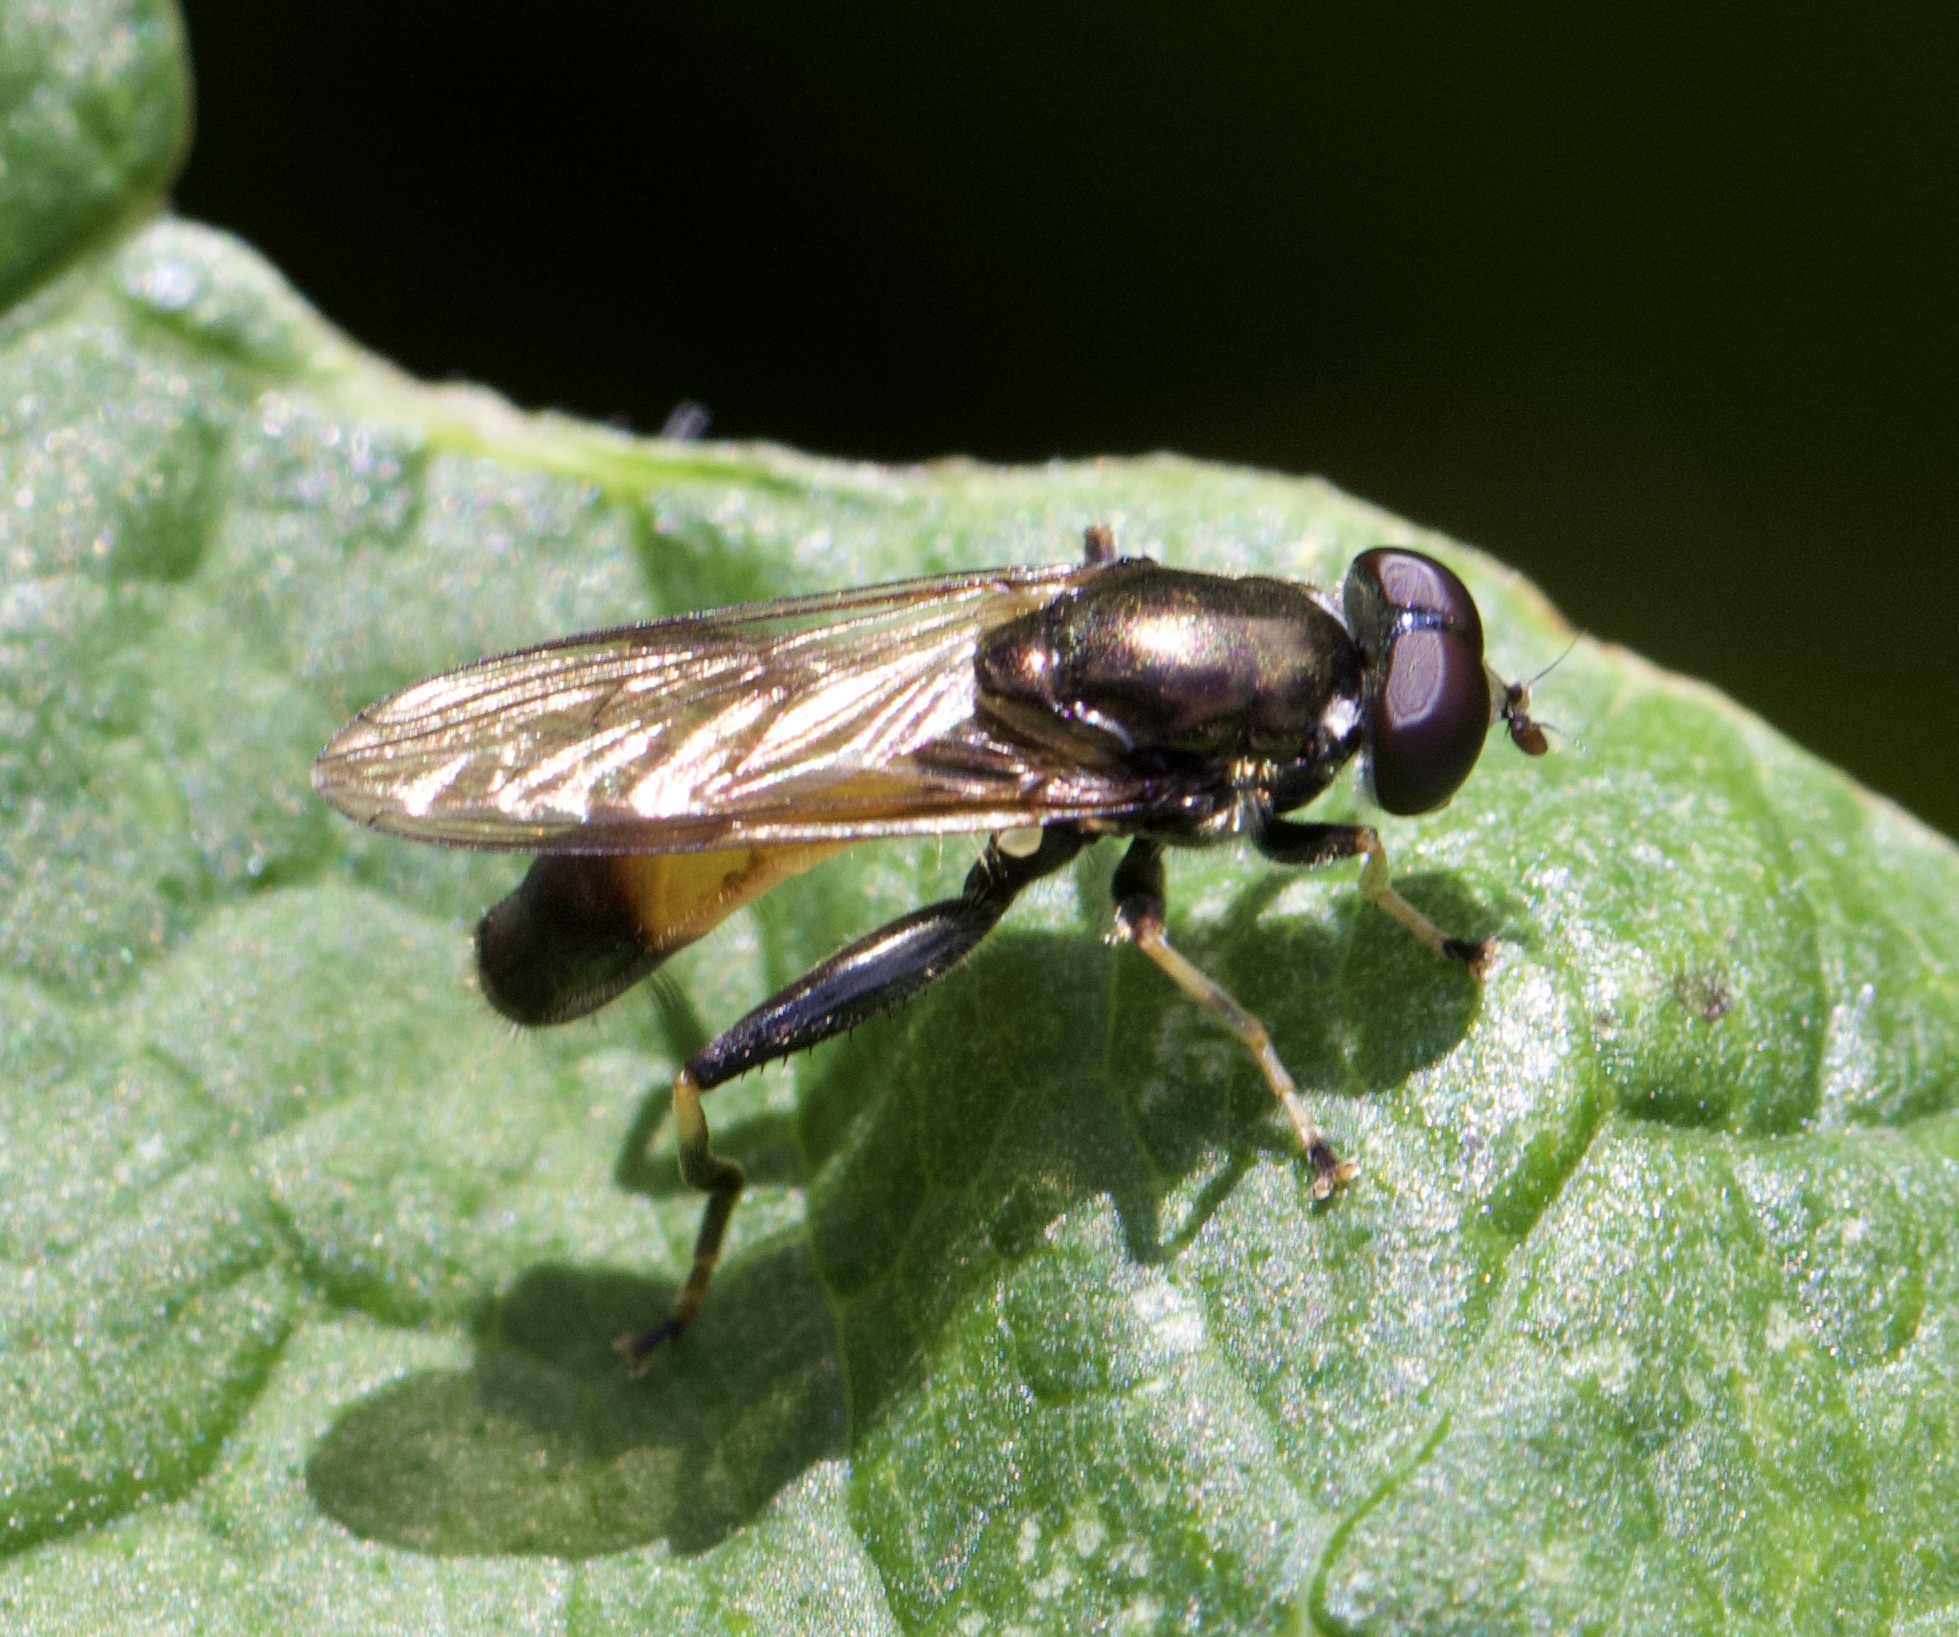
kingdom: Animalia
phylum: Arthropoda
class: Insecta
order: Diptera
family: Syrphidae
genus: Xylota
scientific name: Xylota segnis
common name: Brown-toed forest fly
